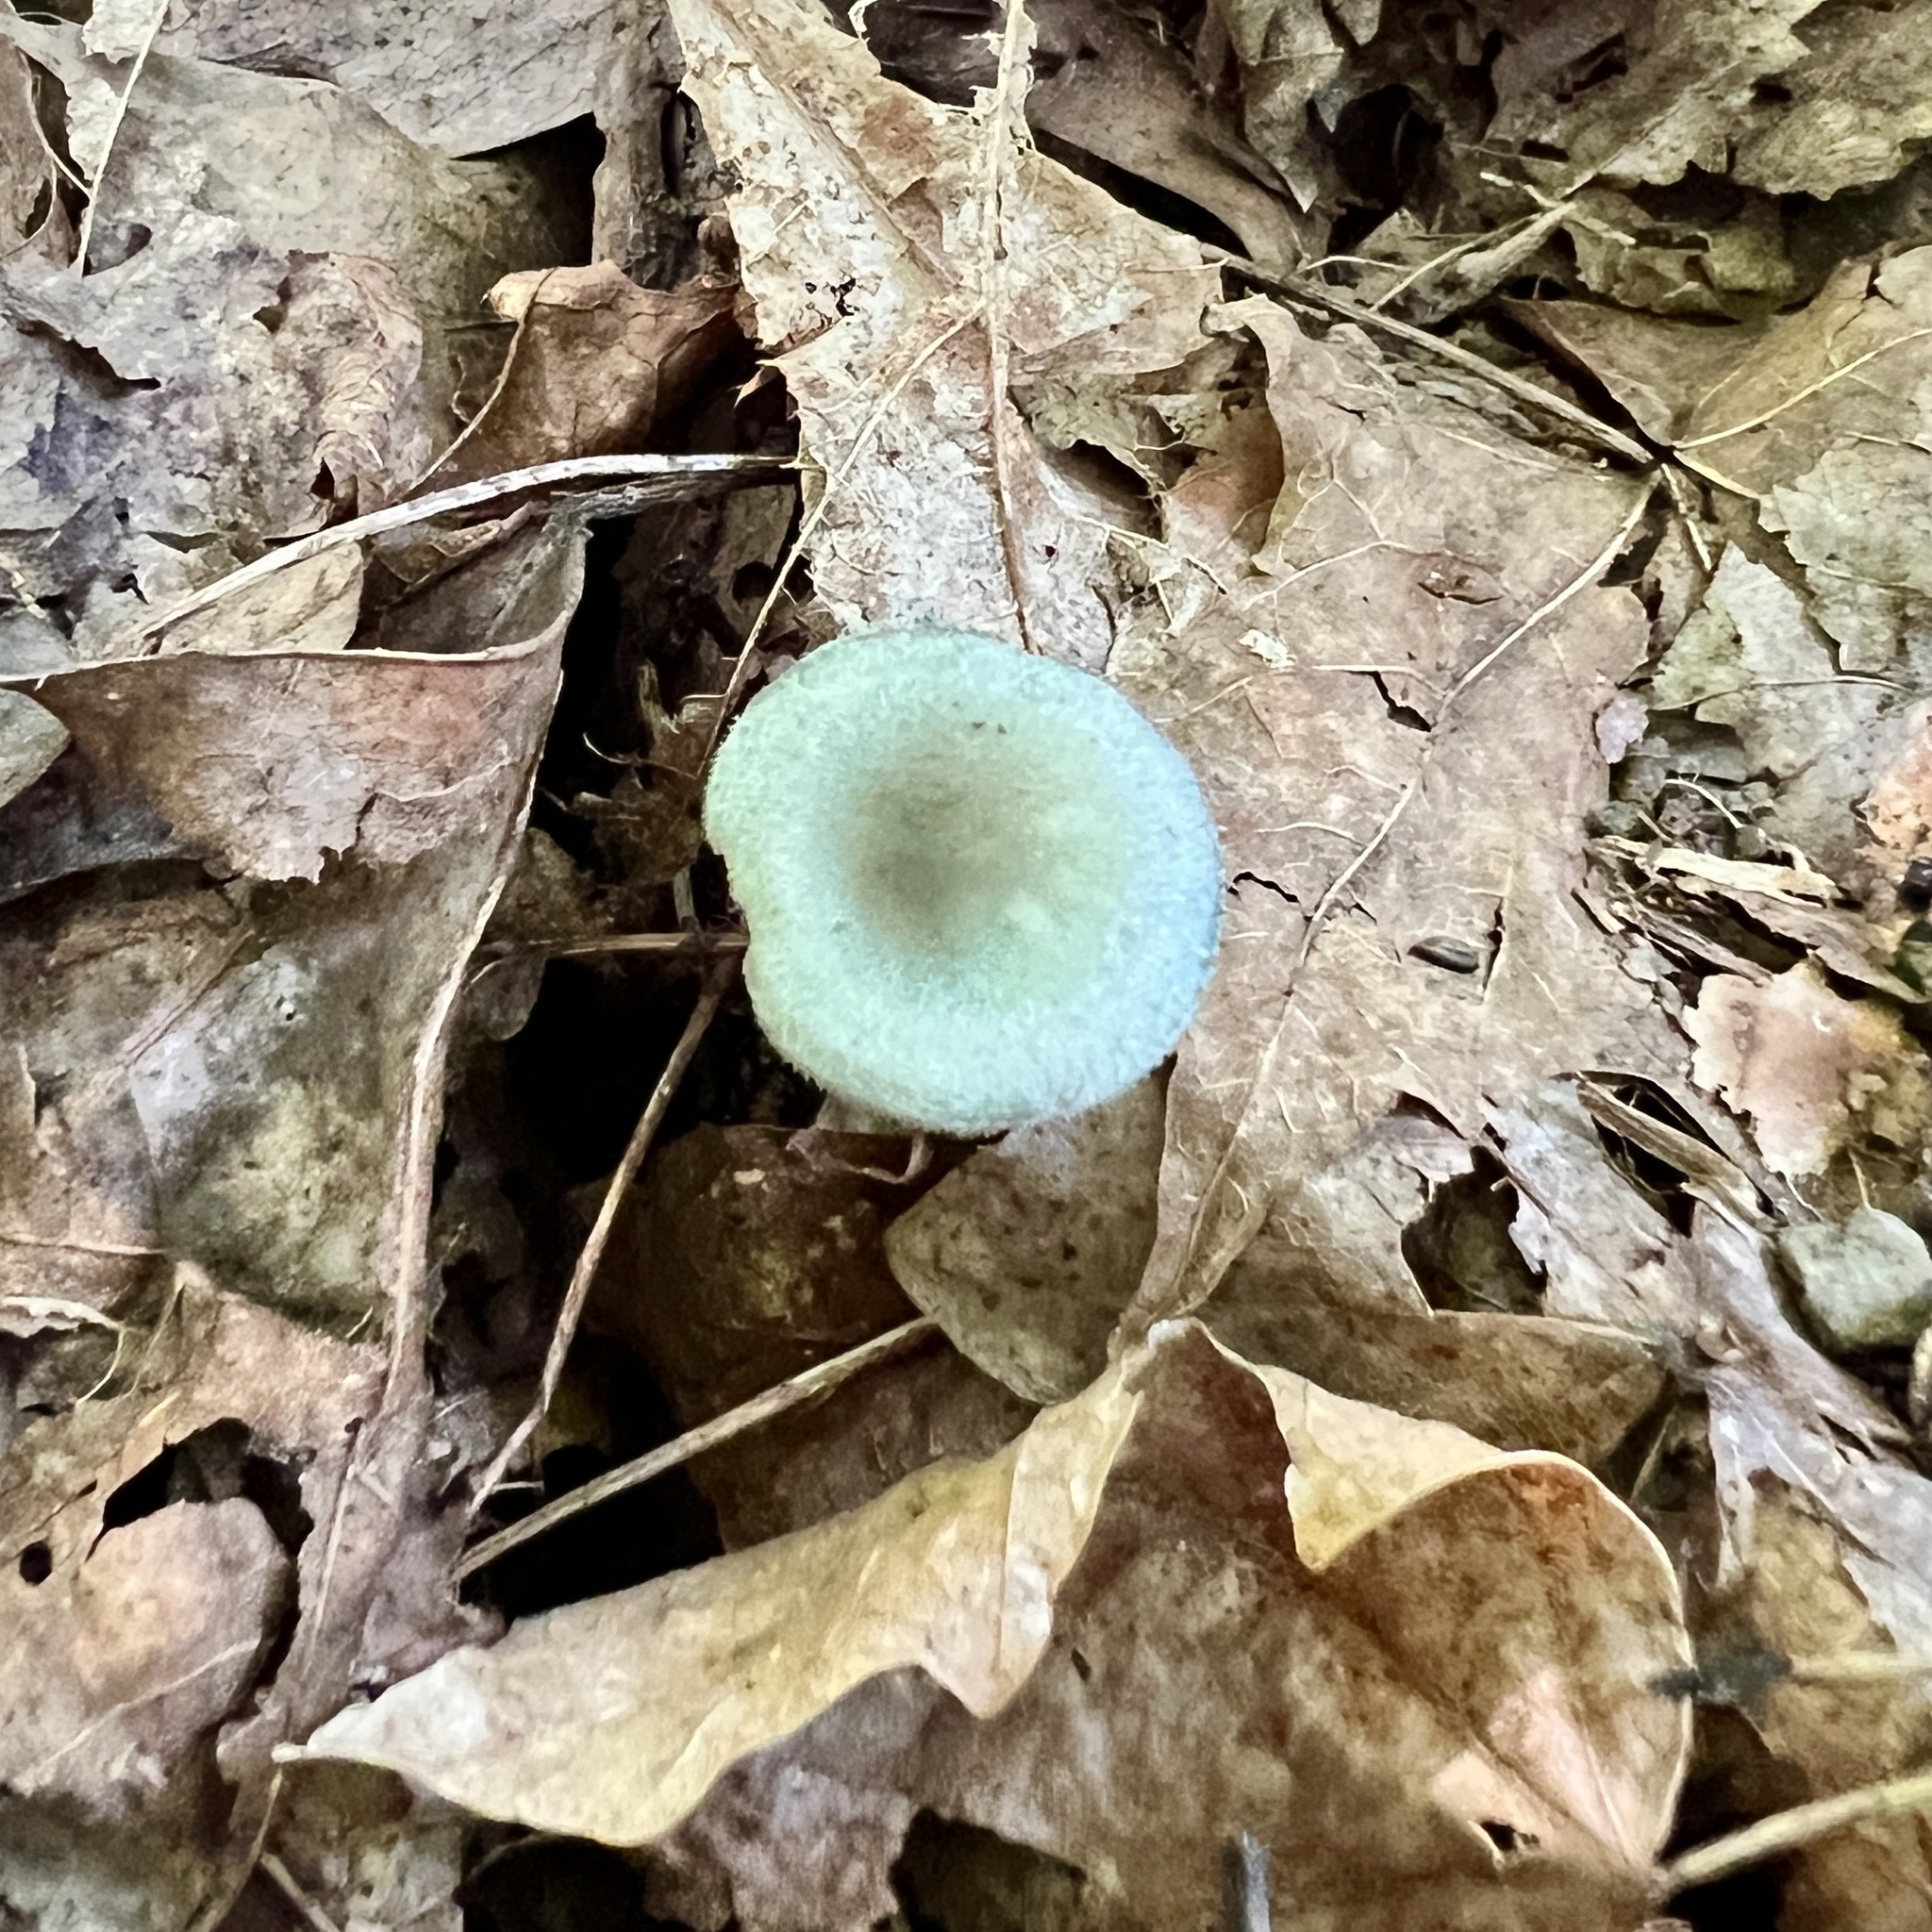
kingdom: Fungi
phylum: Basidiomycota
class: Agaricomycetes
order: Agaricales
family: Tricholomataceae
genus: Collybia
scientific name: Collybia
